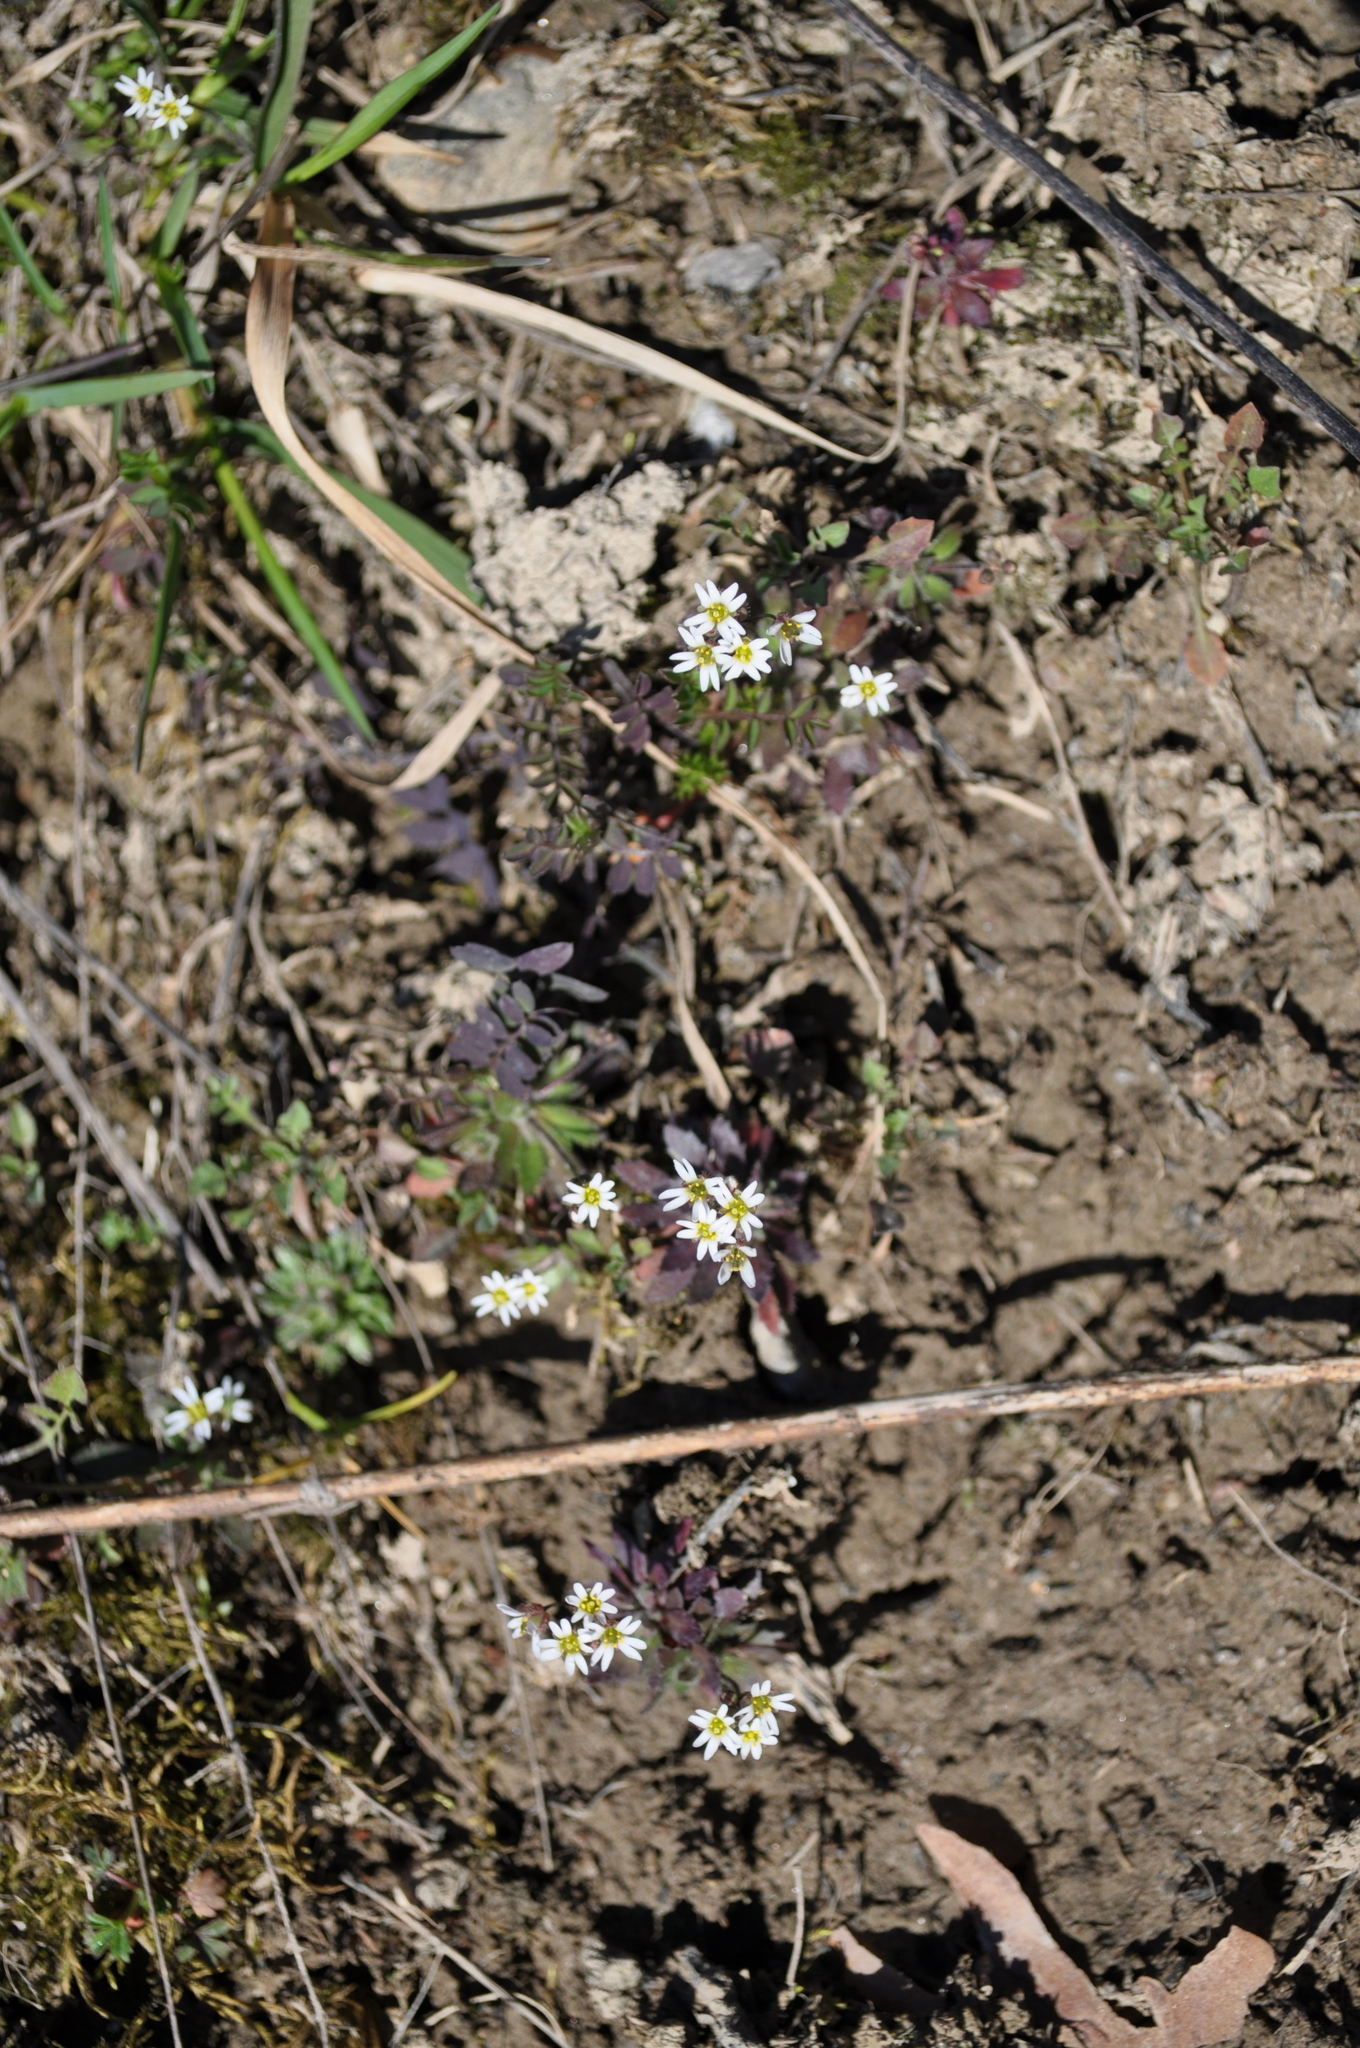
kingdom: Plantae
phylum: Tracheophyta
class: Magnoliopsida
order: Brassicales
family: Brassicaceae
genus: Draba
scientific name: Draba verna
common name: Spring draba
